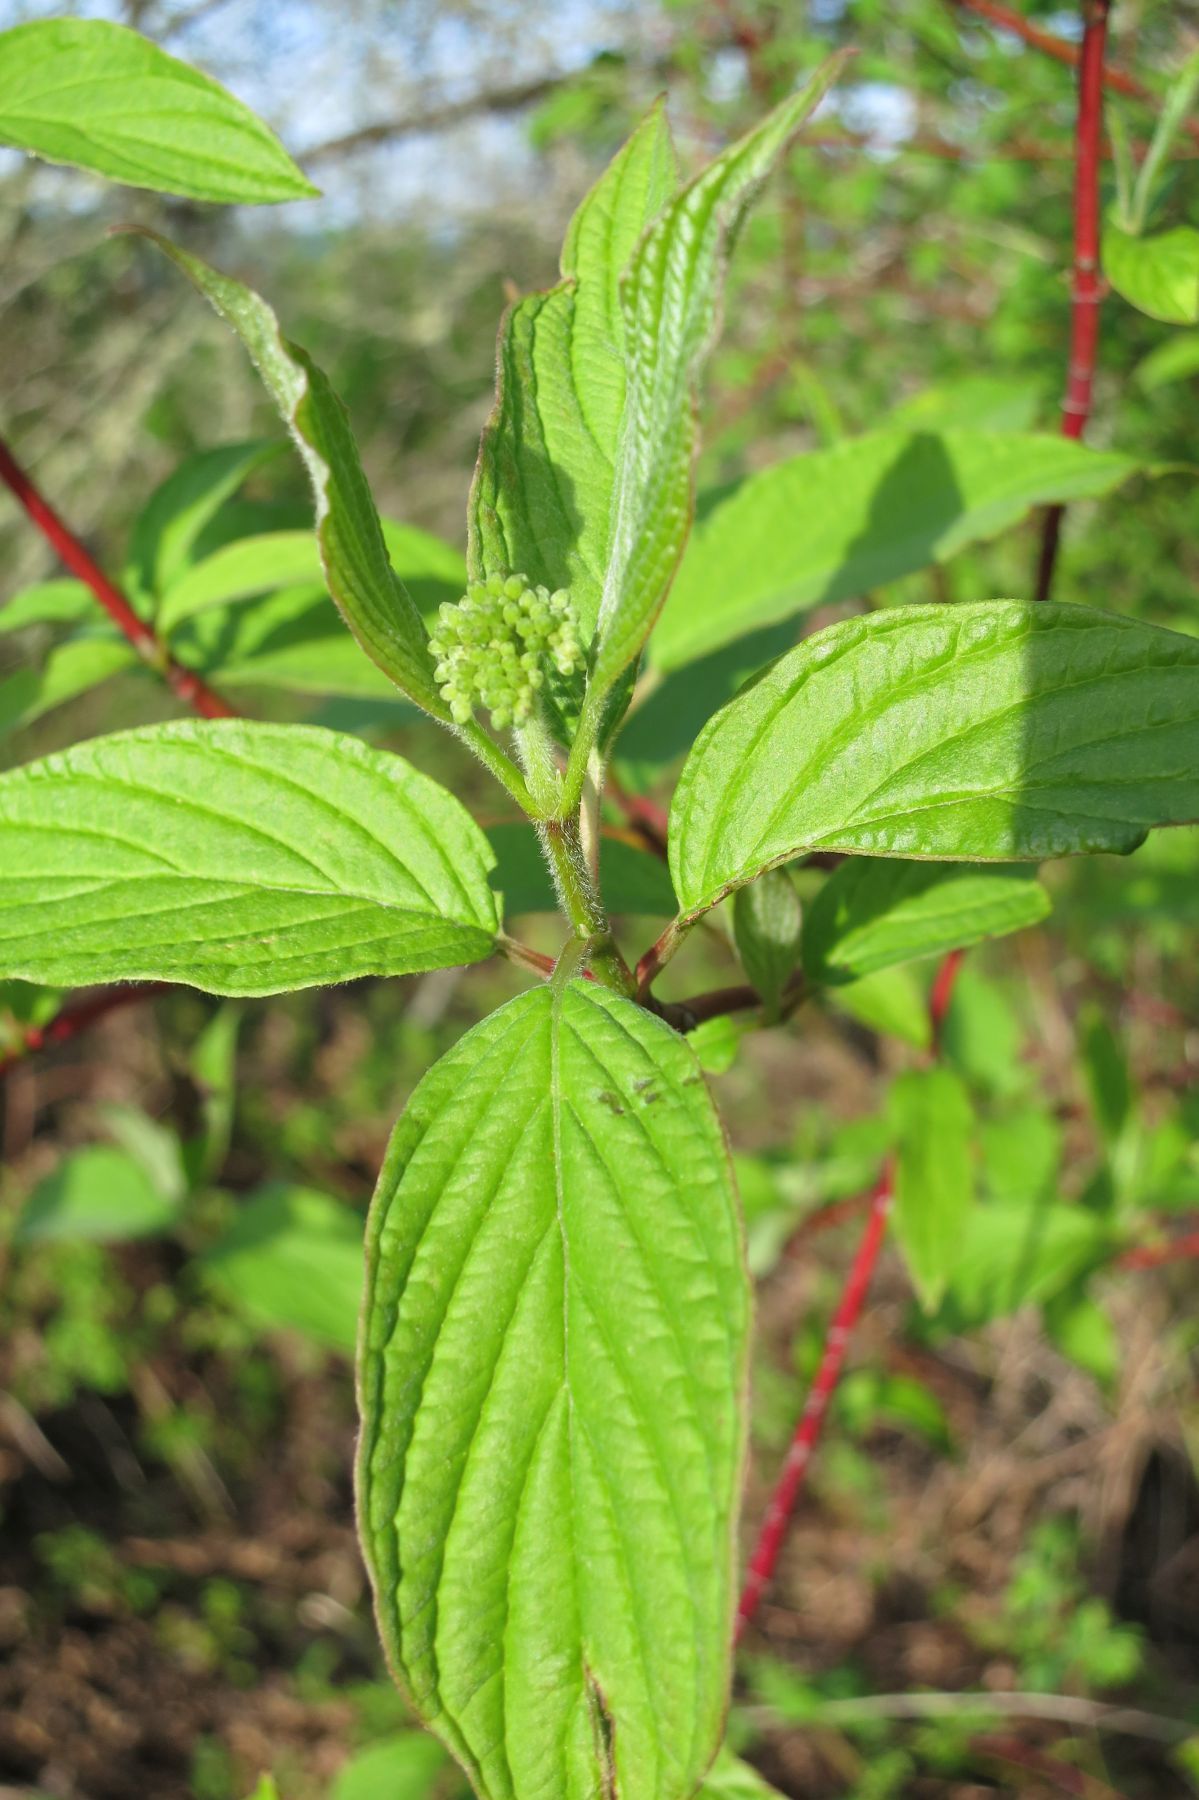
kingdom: Plantae
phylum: Tracheophyta
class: Magnoliopsida
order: Cornales
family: Cornaceae
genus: Cornus
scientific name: Cornus sericea
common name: Red-osier dogwood
